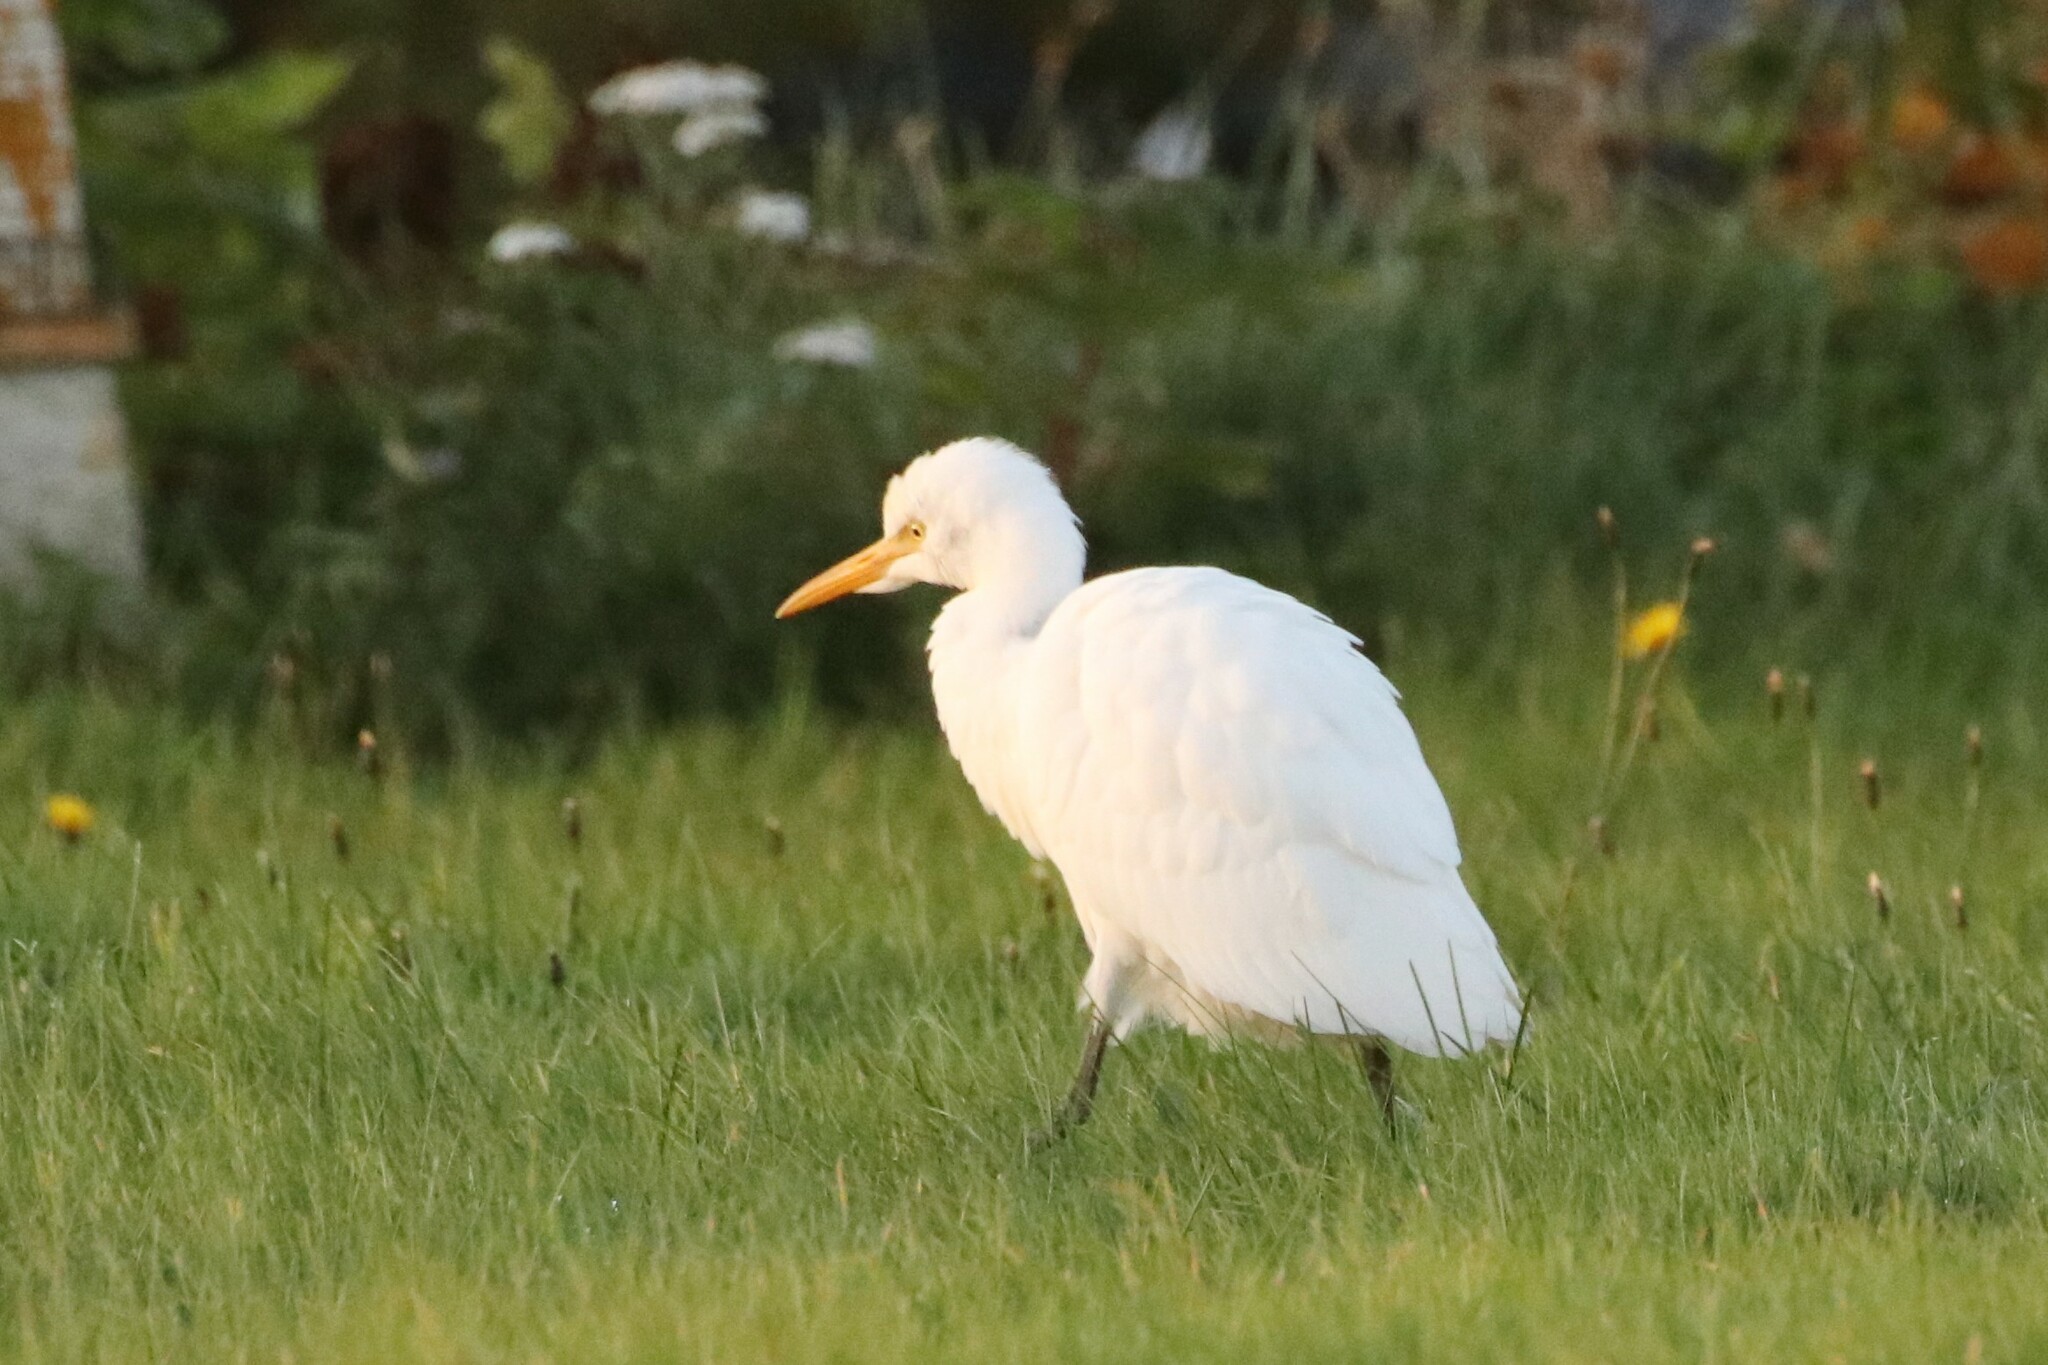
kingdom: Animalia
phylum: Chordata
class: Aves
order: Pelecaniformes
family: Ardeidae
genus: Bubulcus
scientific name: Bubulcus ibis
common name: Cattle egret
